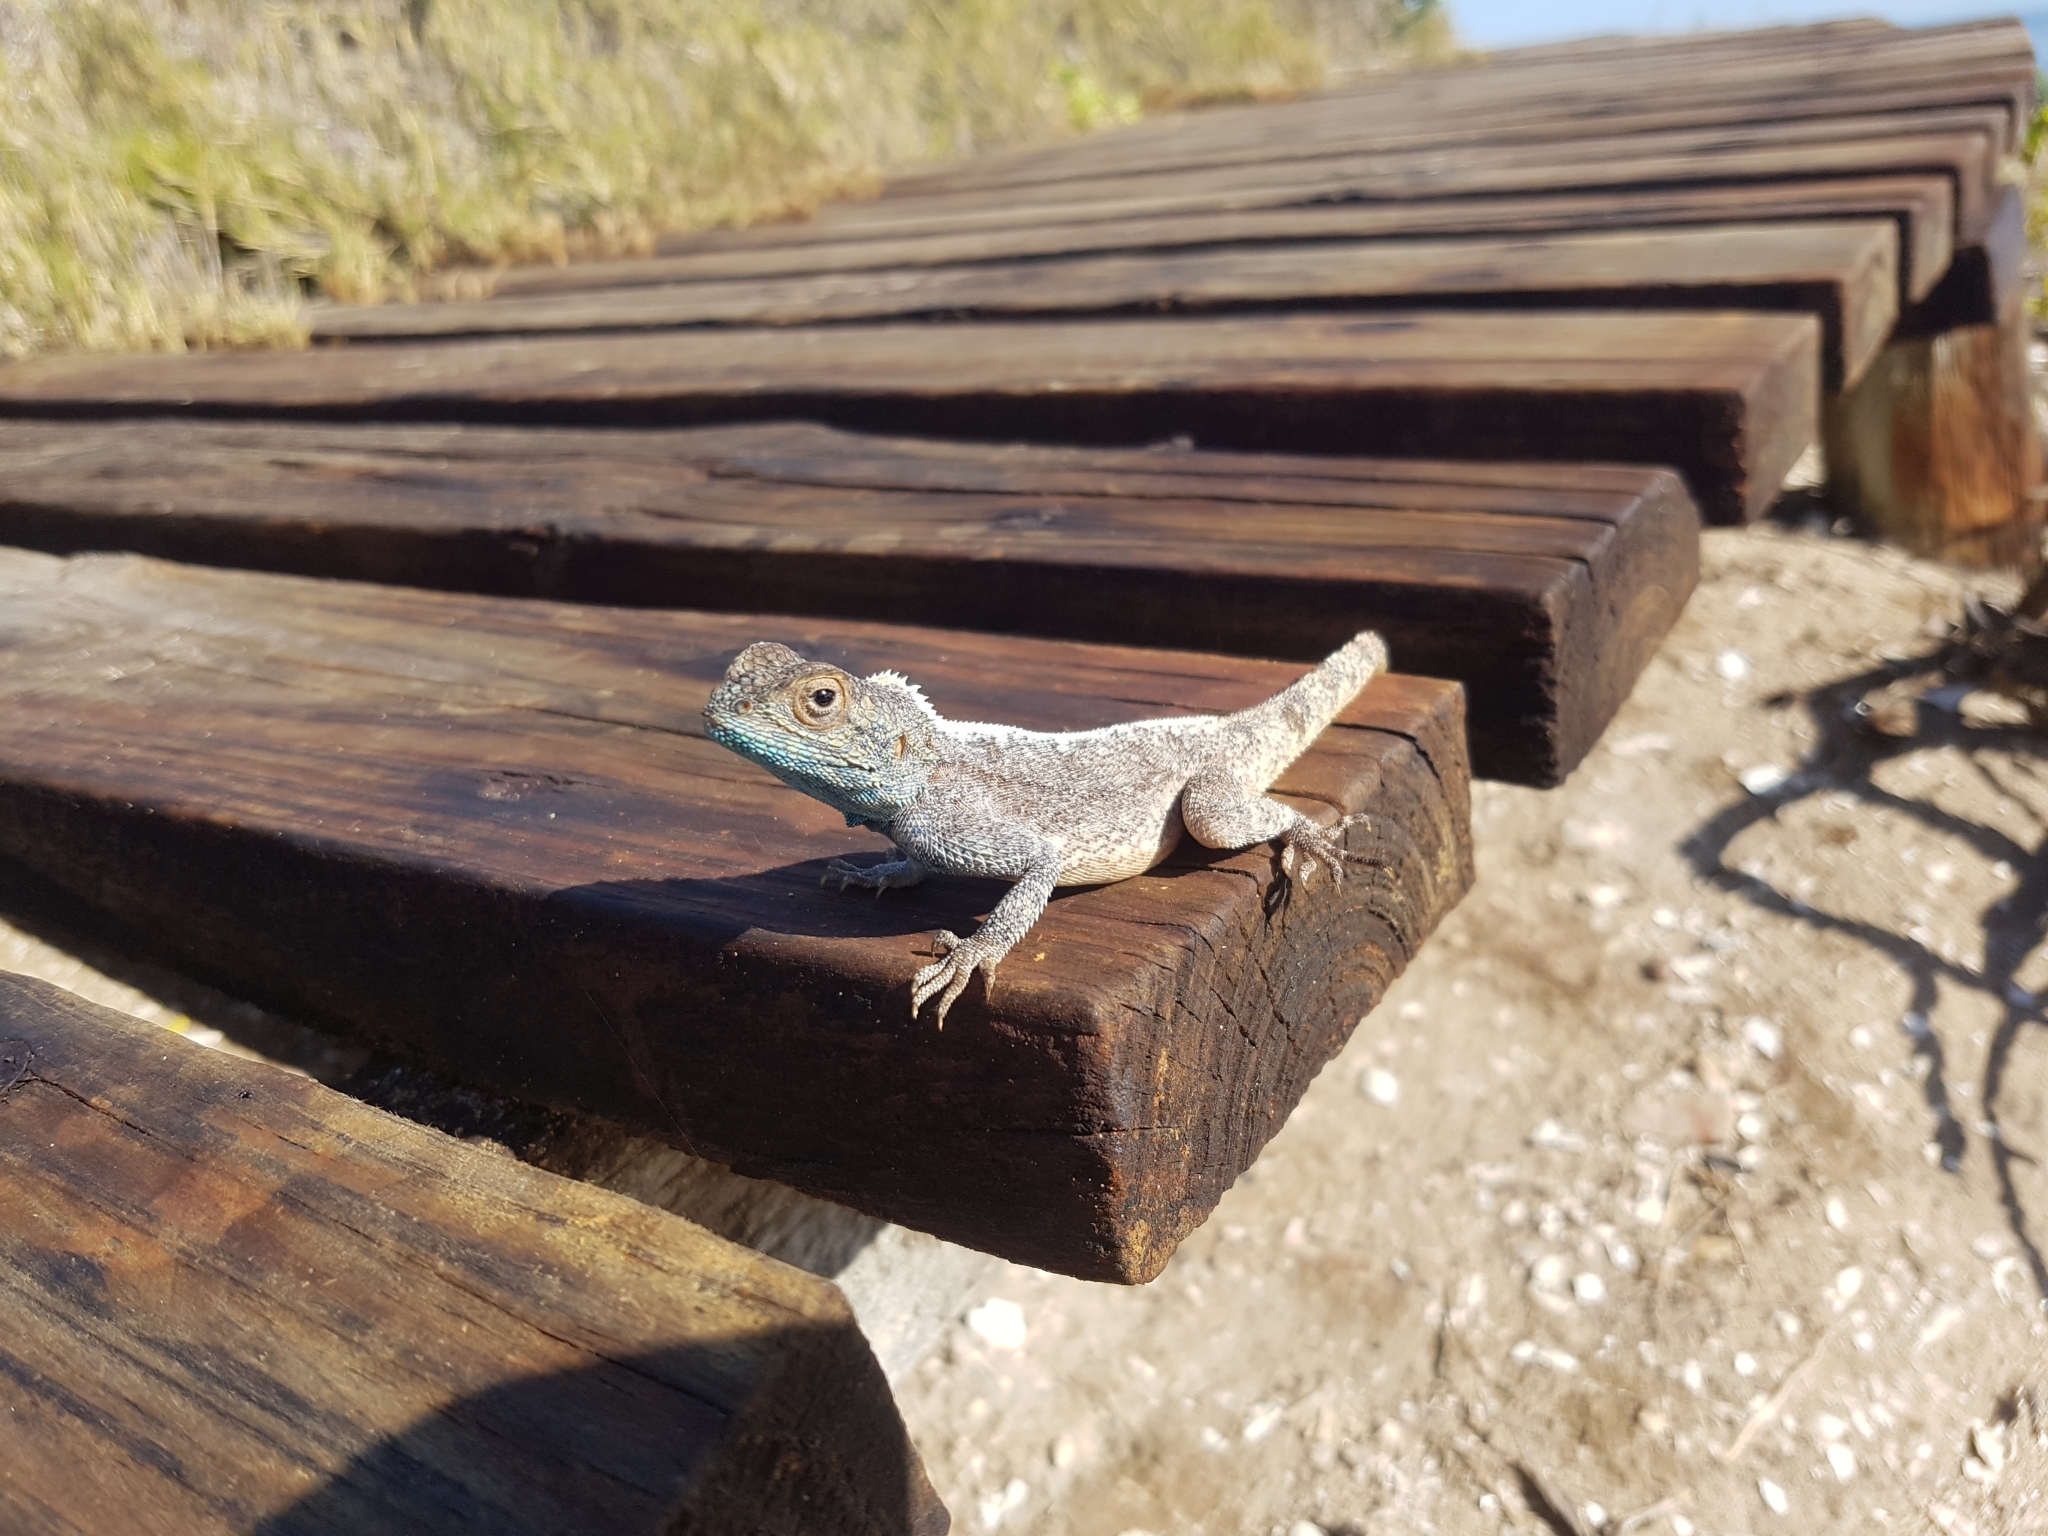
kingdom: Animalia
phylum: Chordata
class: Squamata
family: Agamidae
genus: Agama
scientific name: Agama atra
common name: Southern african rock agama
